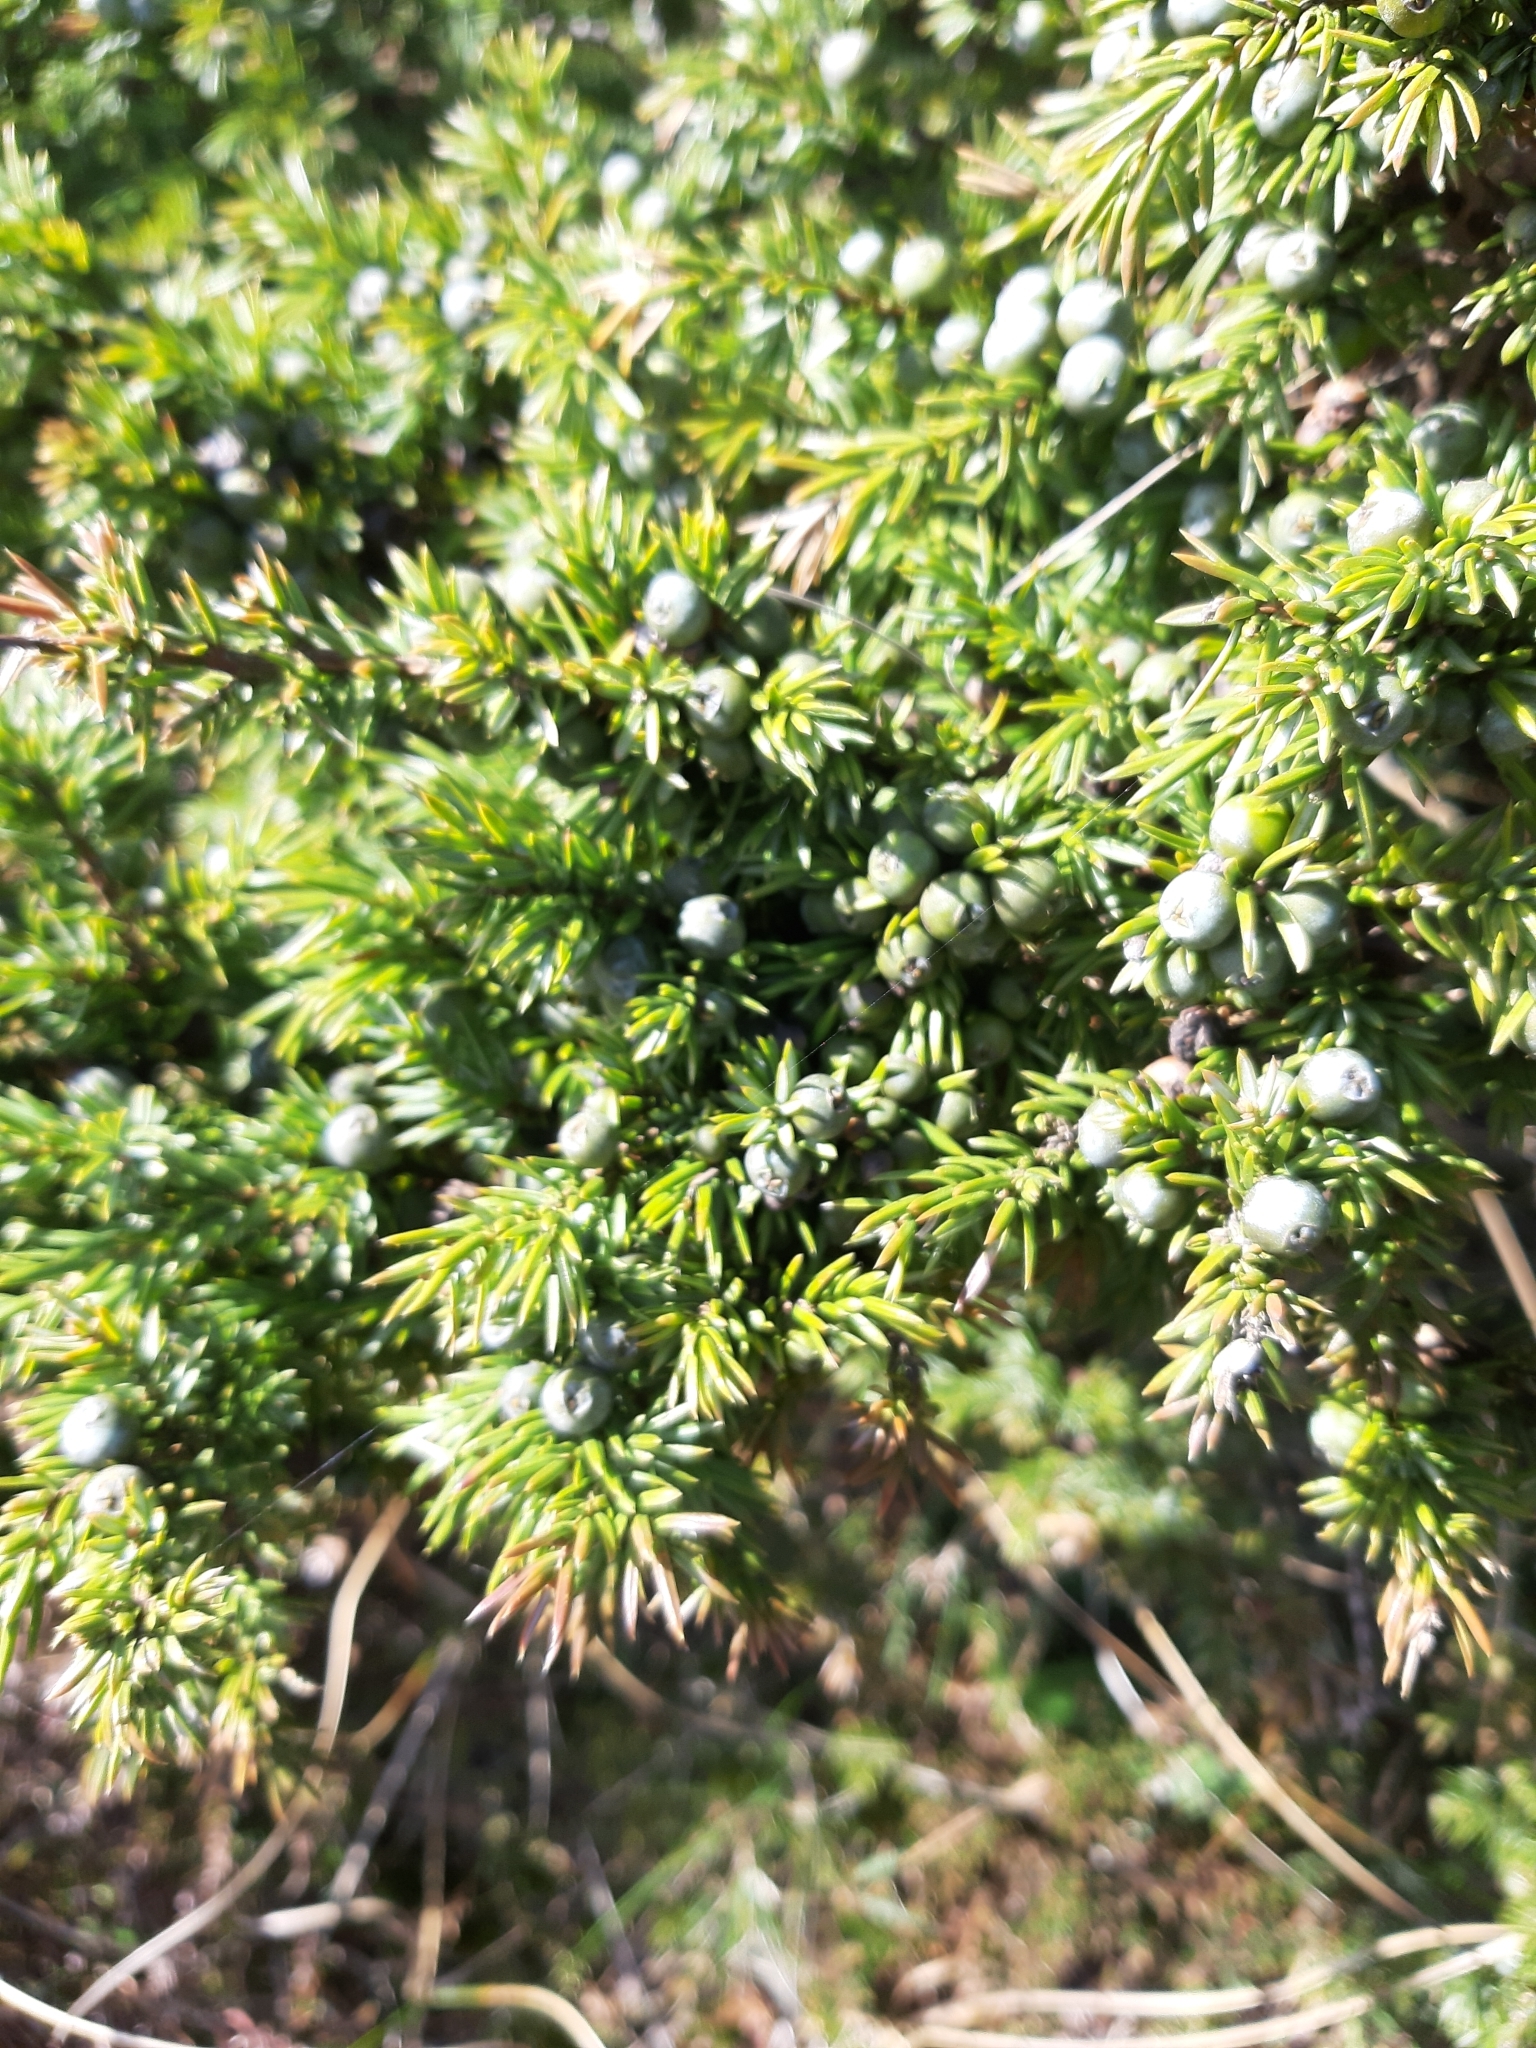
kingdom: Plantae
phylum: Tracheophyta
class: Pinopsida
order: Pinales
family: Cupressaceae
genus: Juniperus
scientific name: Juniperus communis
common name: Common juniper
